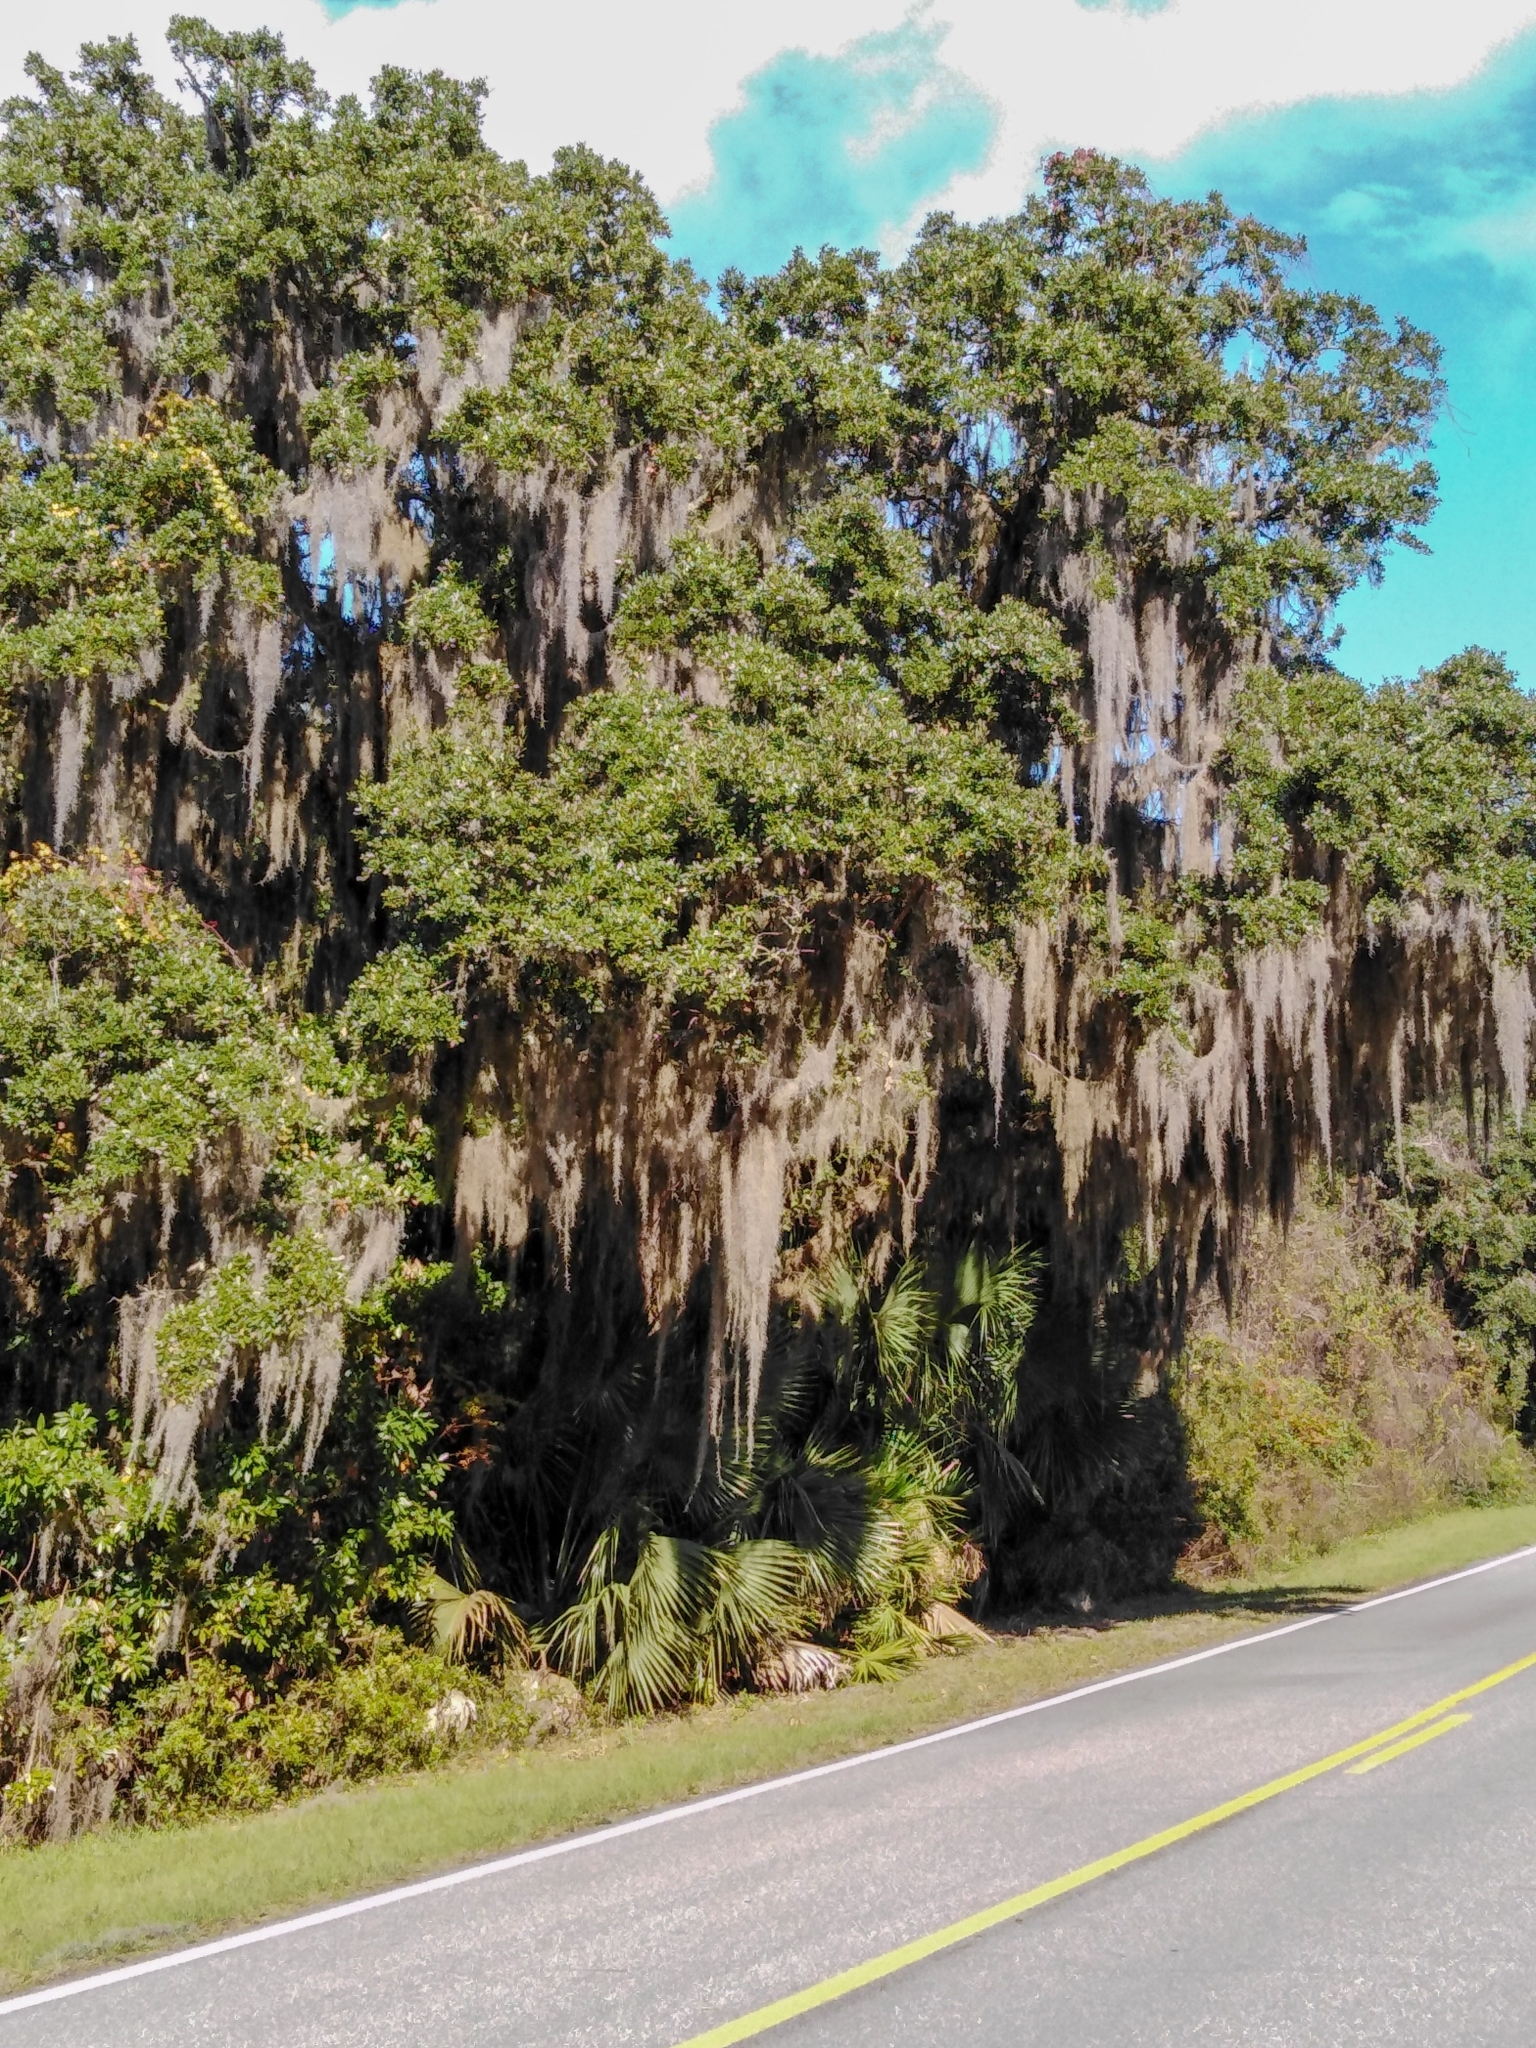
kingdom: Plantae
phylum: Tracheophyta
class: Liliopsida
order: Poales
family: Bromeliaceae
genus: Tillandsia
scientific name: Tillandsia usneoides
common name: Spanish moss
